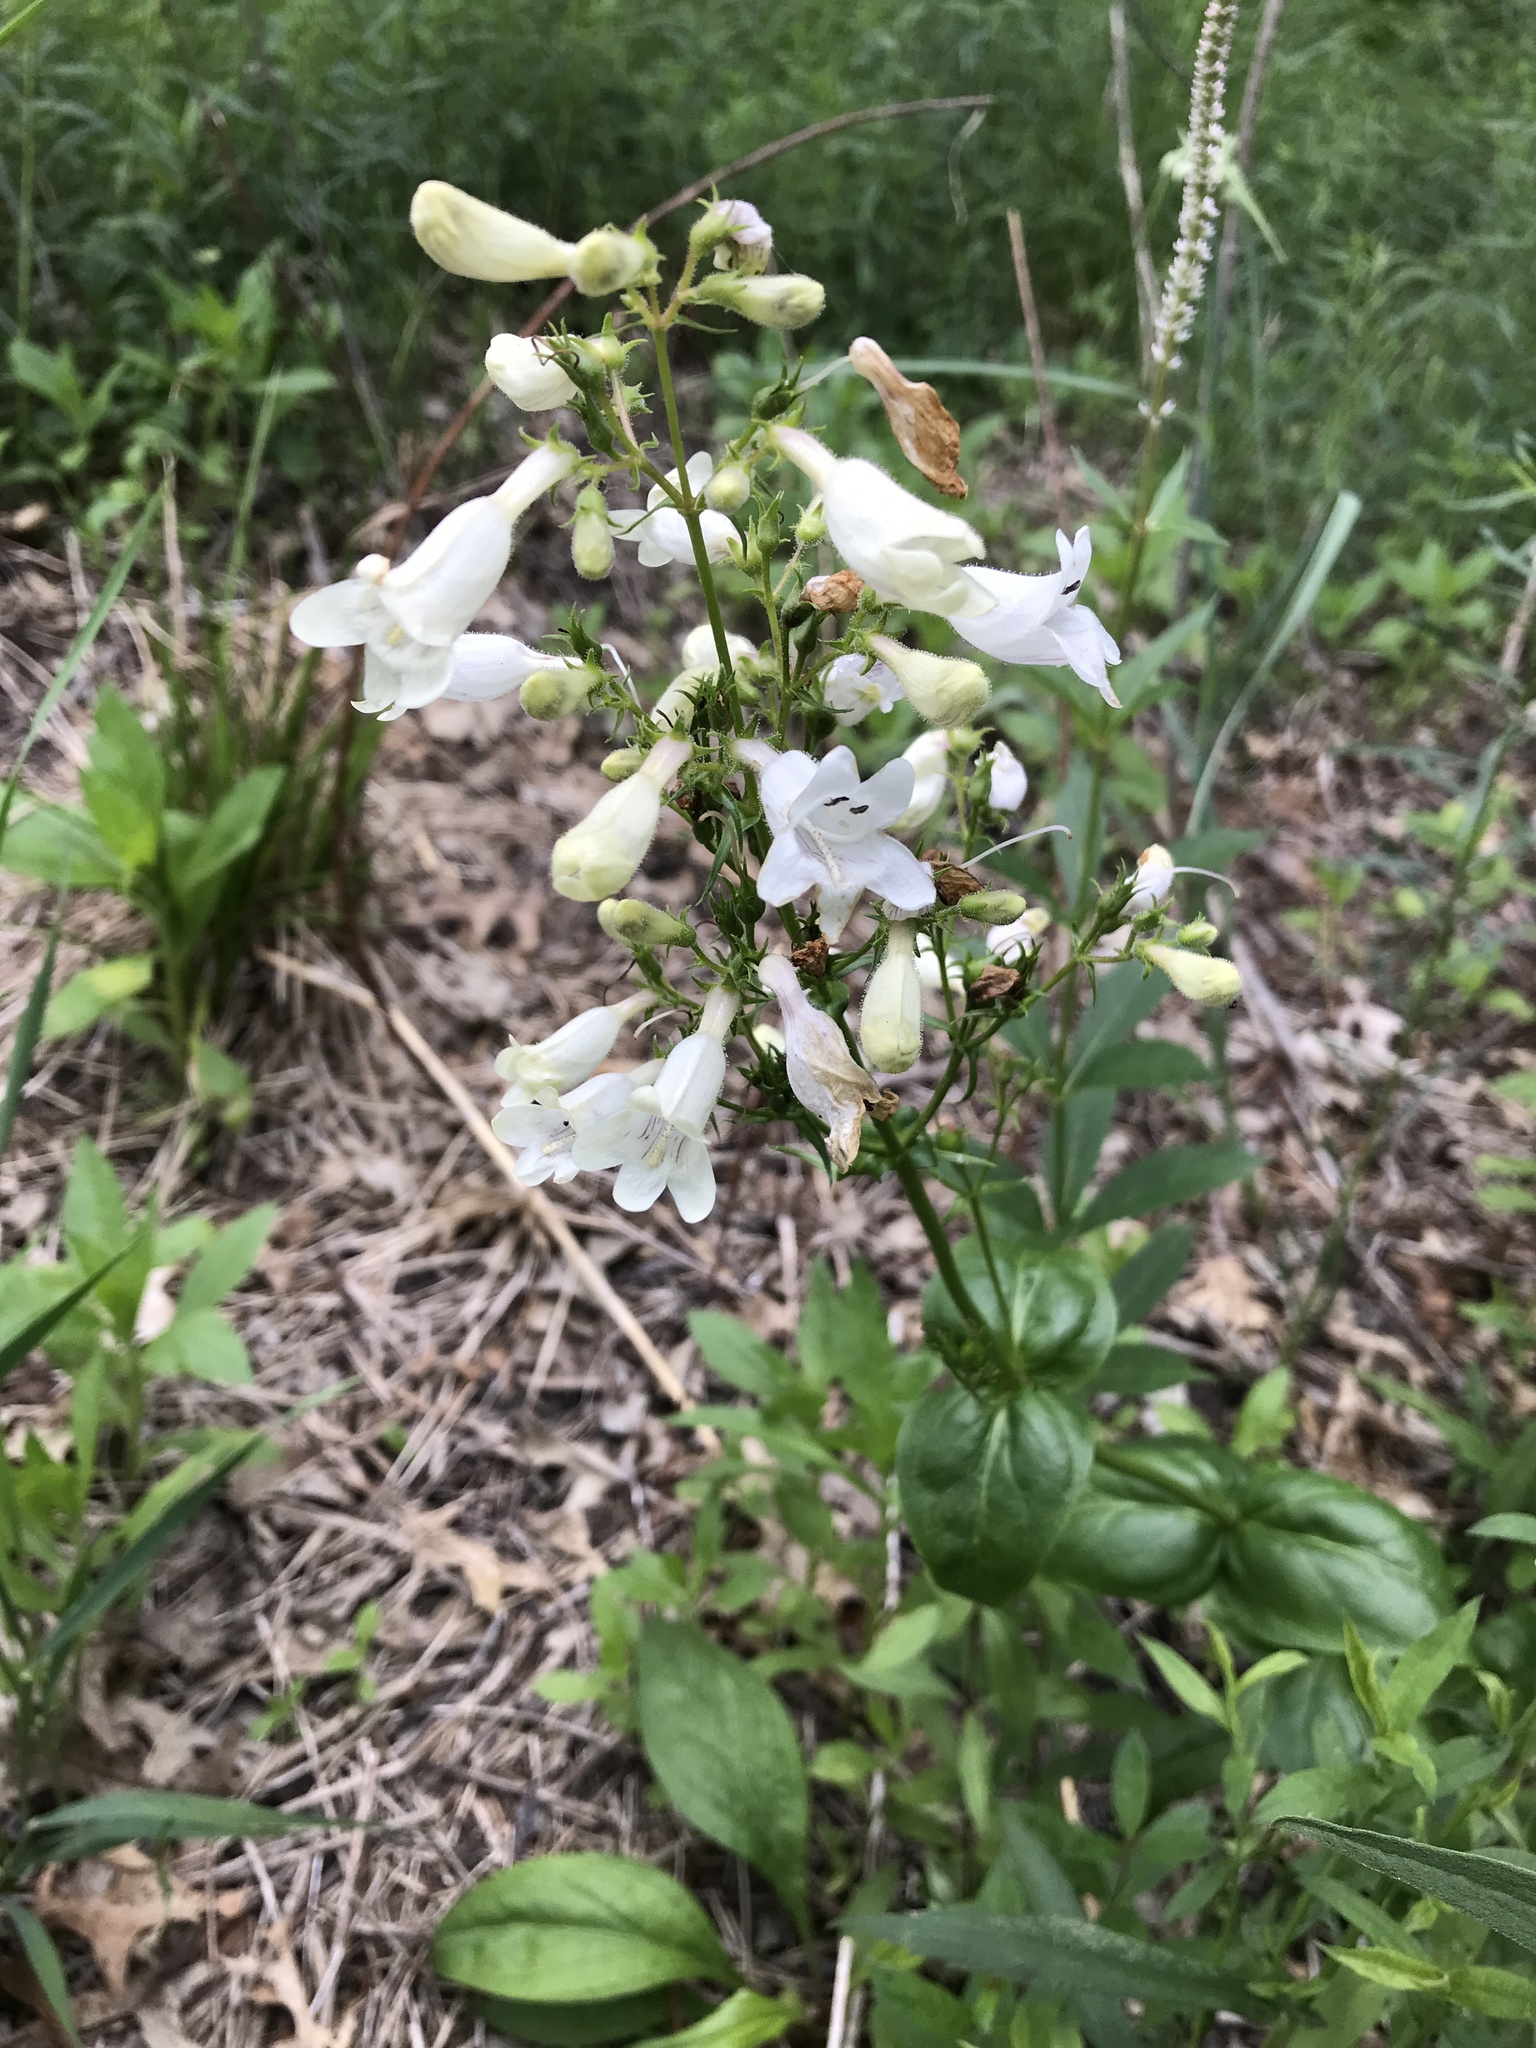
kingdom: Plantae
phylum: Tracheophyta
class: Magnoliopsida
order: Lamiales
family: Plantaginaceae
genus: Penstemon
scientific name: Penstemon digitalis
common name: Foxglove beardtongue
